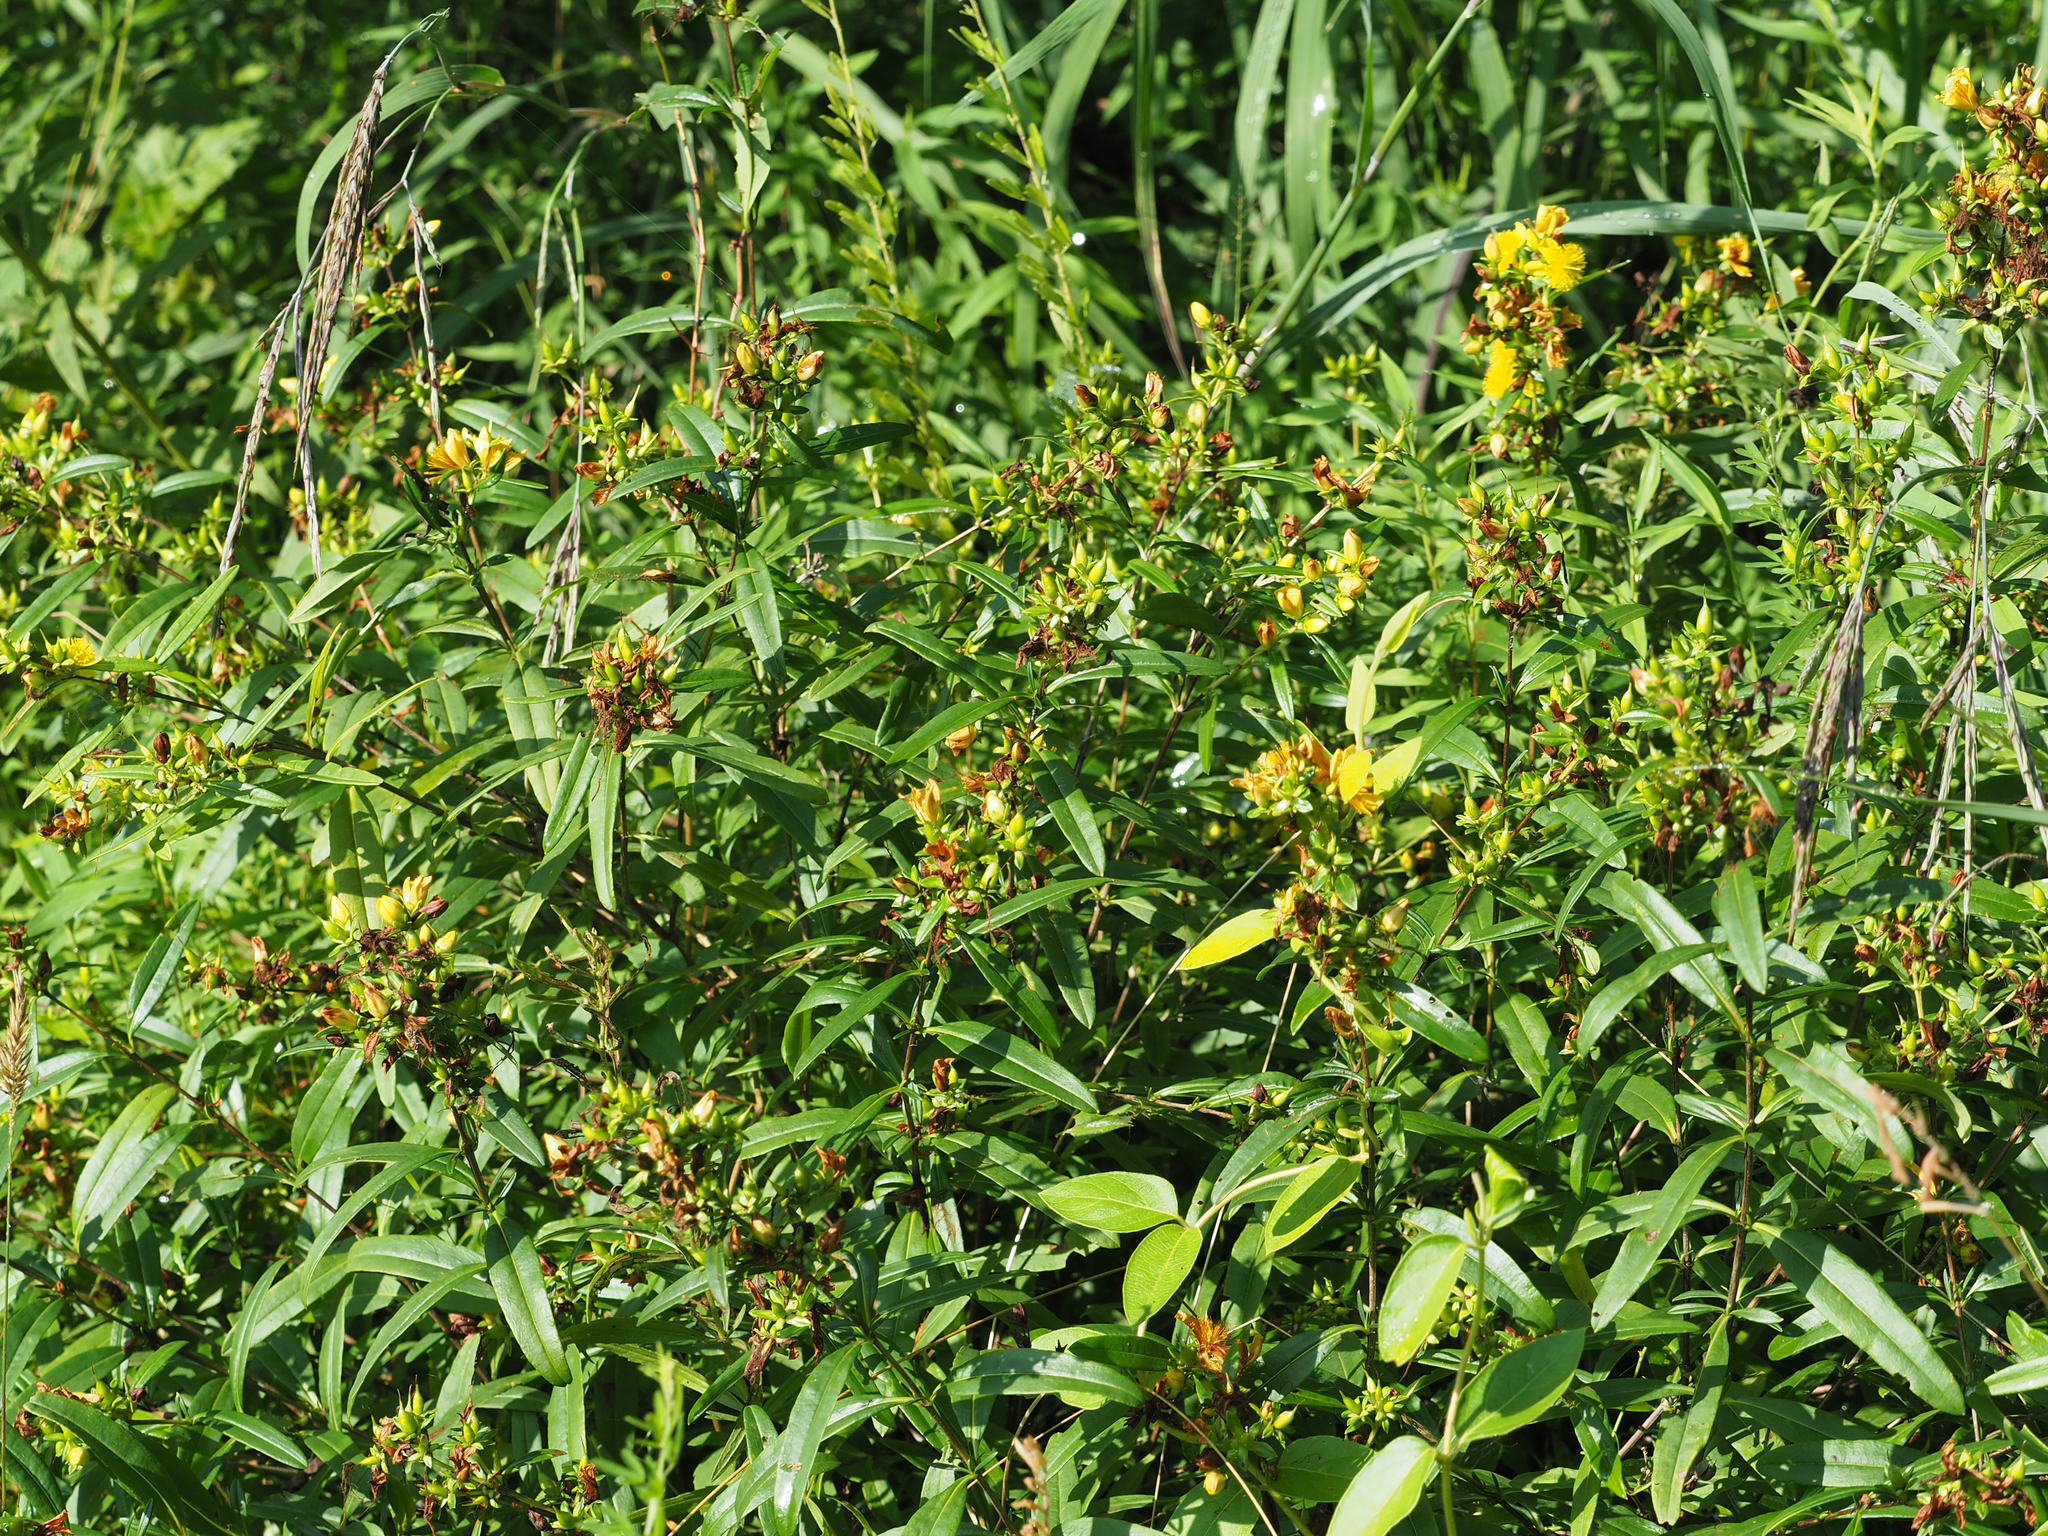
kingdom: Plantae
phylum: Tracheophyta
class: Magnoliopsida
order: Malpighiales
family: Hypericaceae
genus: Hypericum
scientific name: Hypericum prolificum
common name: Shrubby st. john's-wort
